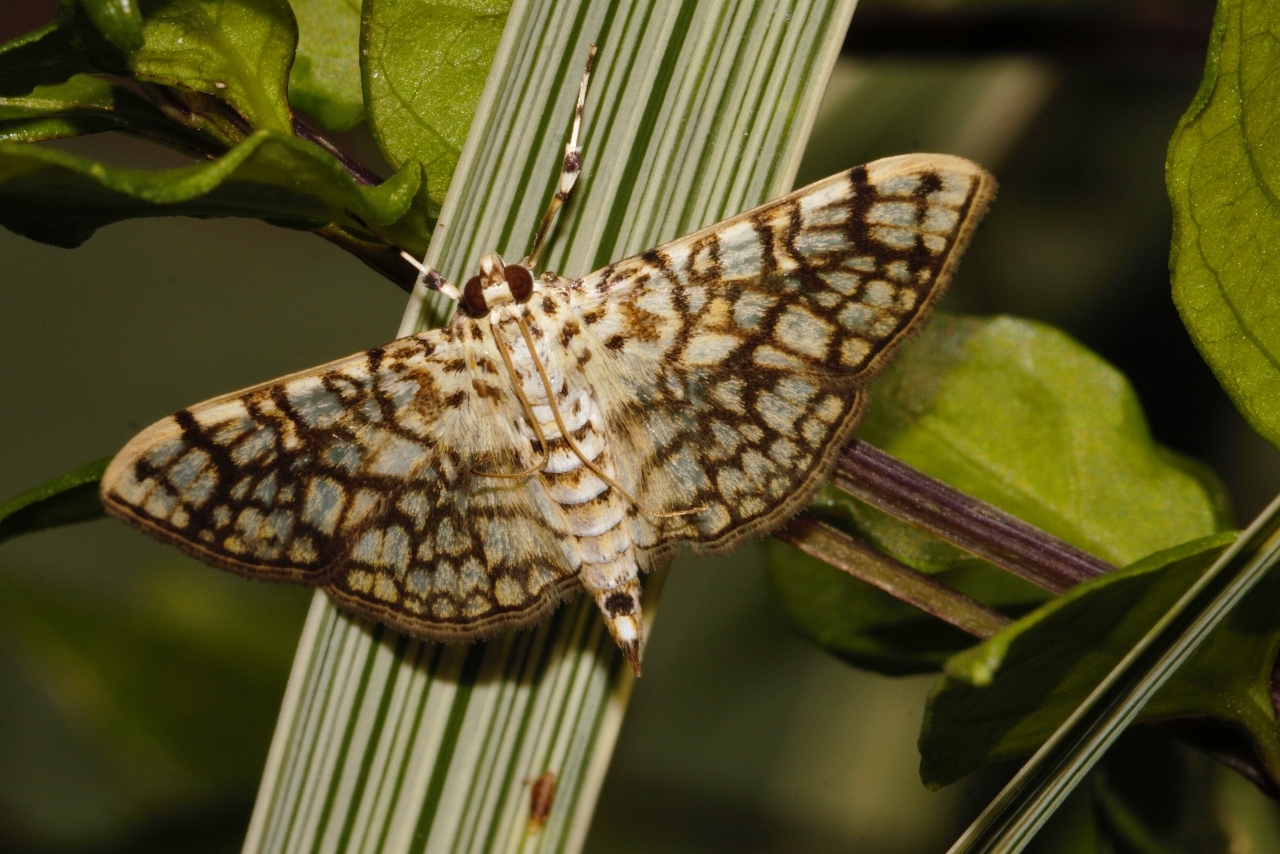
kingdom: Animalia
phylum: Arthropoda
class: Insecta
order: Lepidoptera
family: Crambidae
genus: Haritalodes
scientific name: Haritalodes derogata
